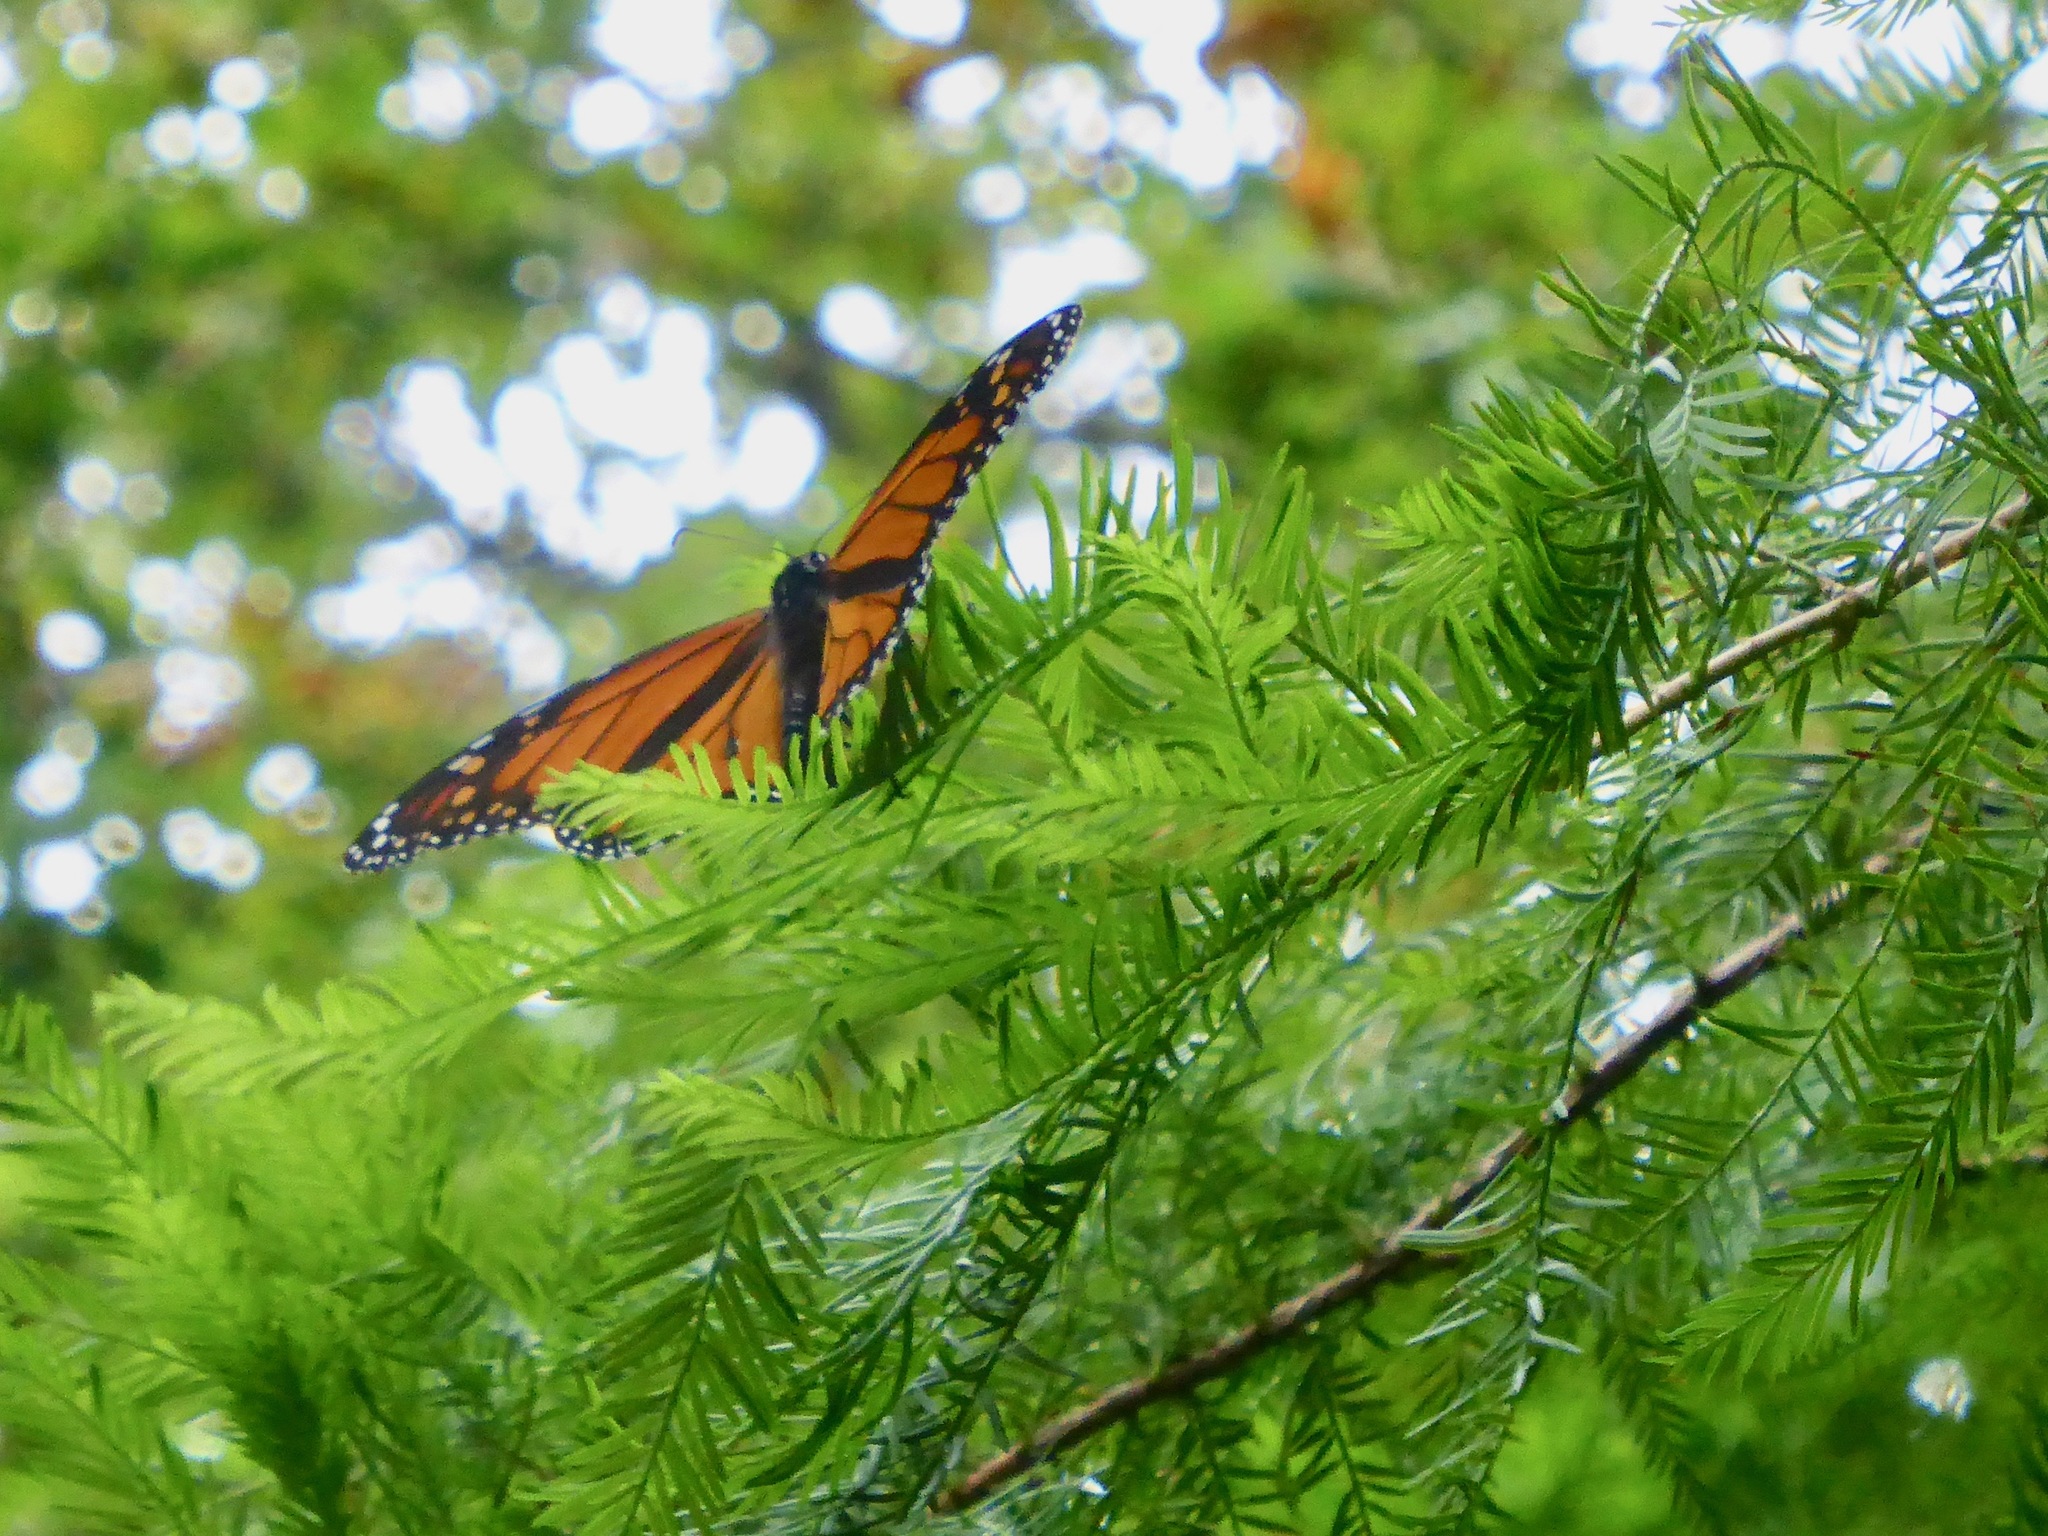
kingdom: Animalia
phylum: Arthropoda
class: Insecta
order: Lepidoptera
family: Nymphalidae
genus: Danaus
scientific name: Danaus plexippus
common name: Monarch
